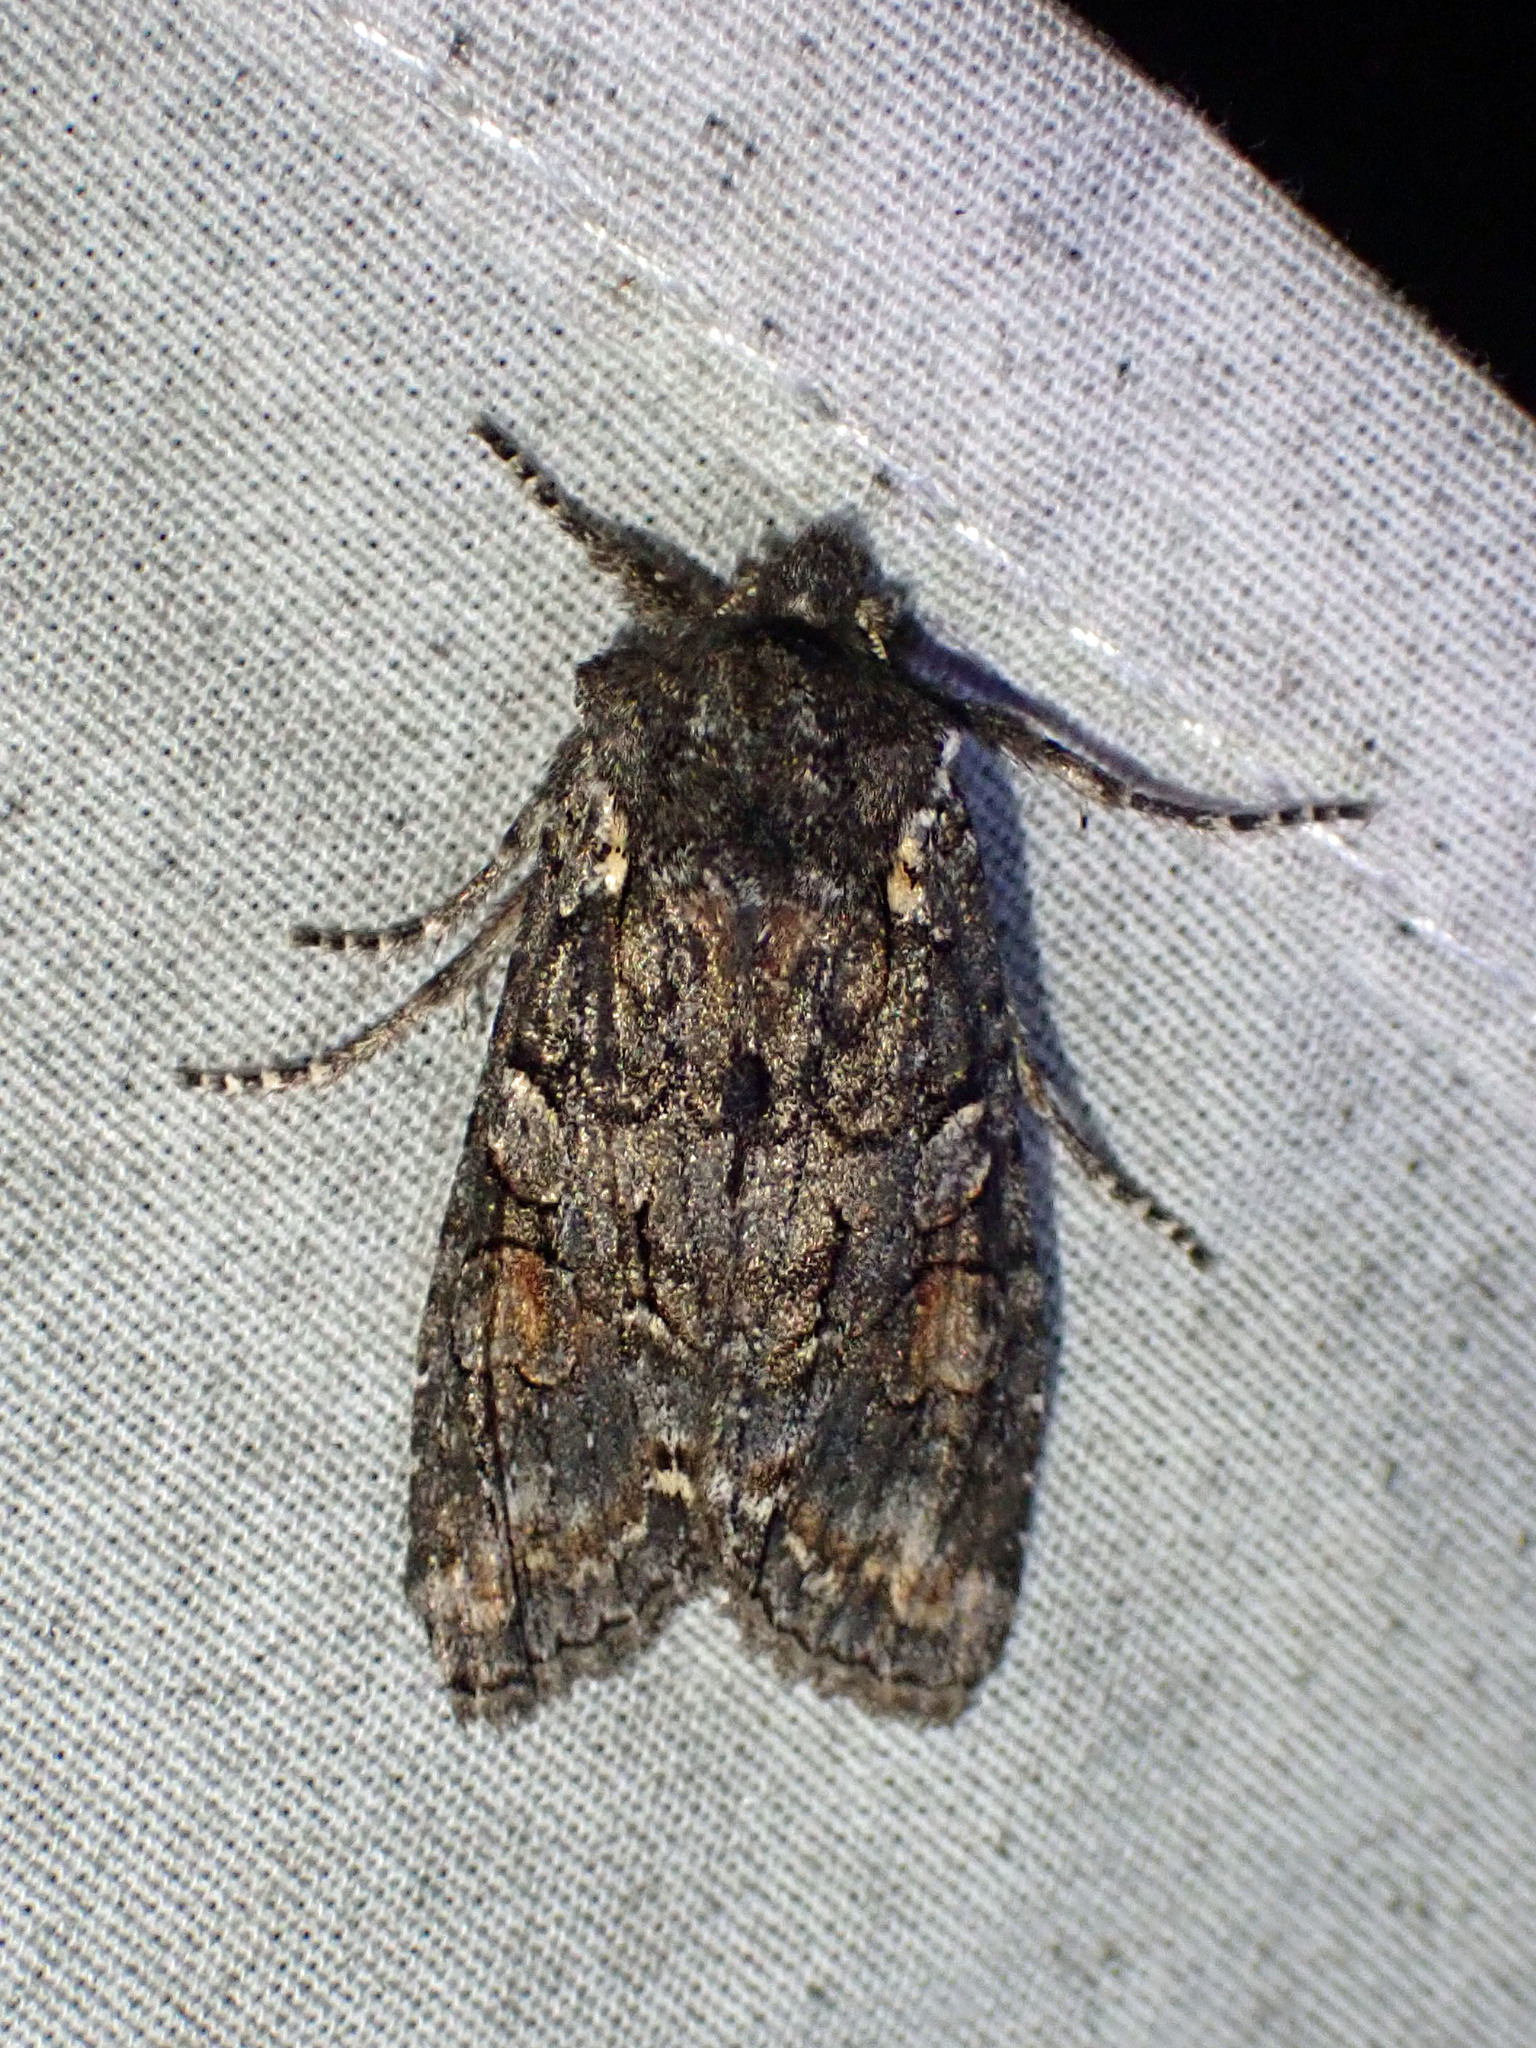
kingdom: Animalia
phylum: Arthropoda
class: Insecta
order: Lepidoptera
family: Noctuidae
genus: Lithophane
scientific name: Lithophane pexata
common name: Plush-naped pinion moth
